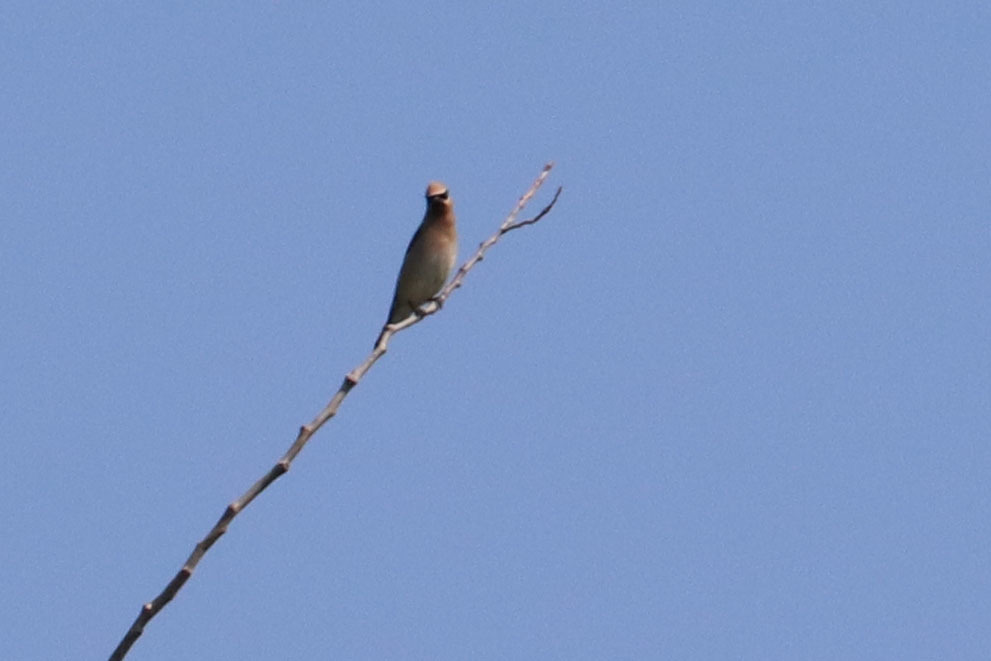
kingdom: Animalia
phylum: Chordata
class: Aves
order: Passeriformes
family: Bombycillidae
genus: Bombycilla
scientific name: Bombycilla cedrorum
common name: Cedar waxwing
